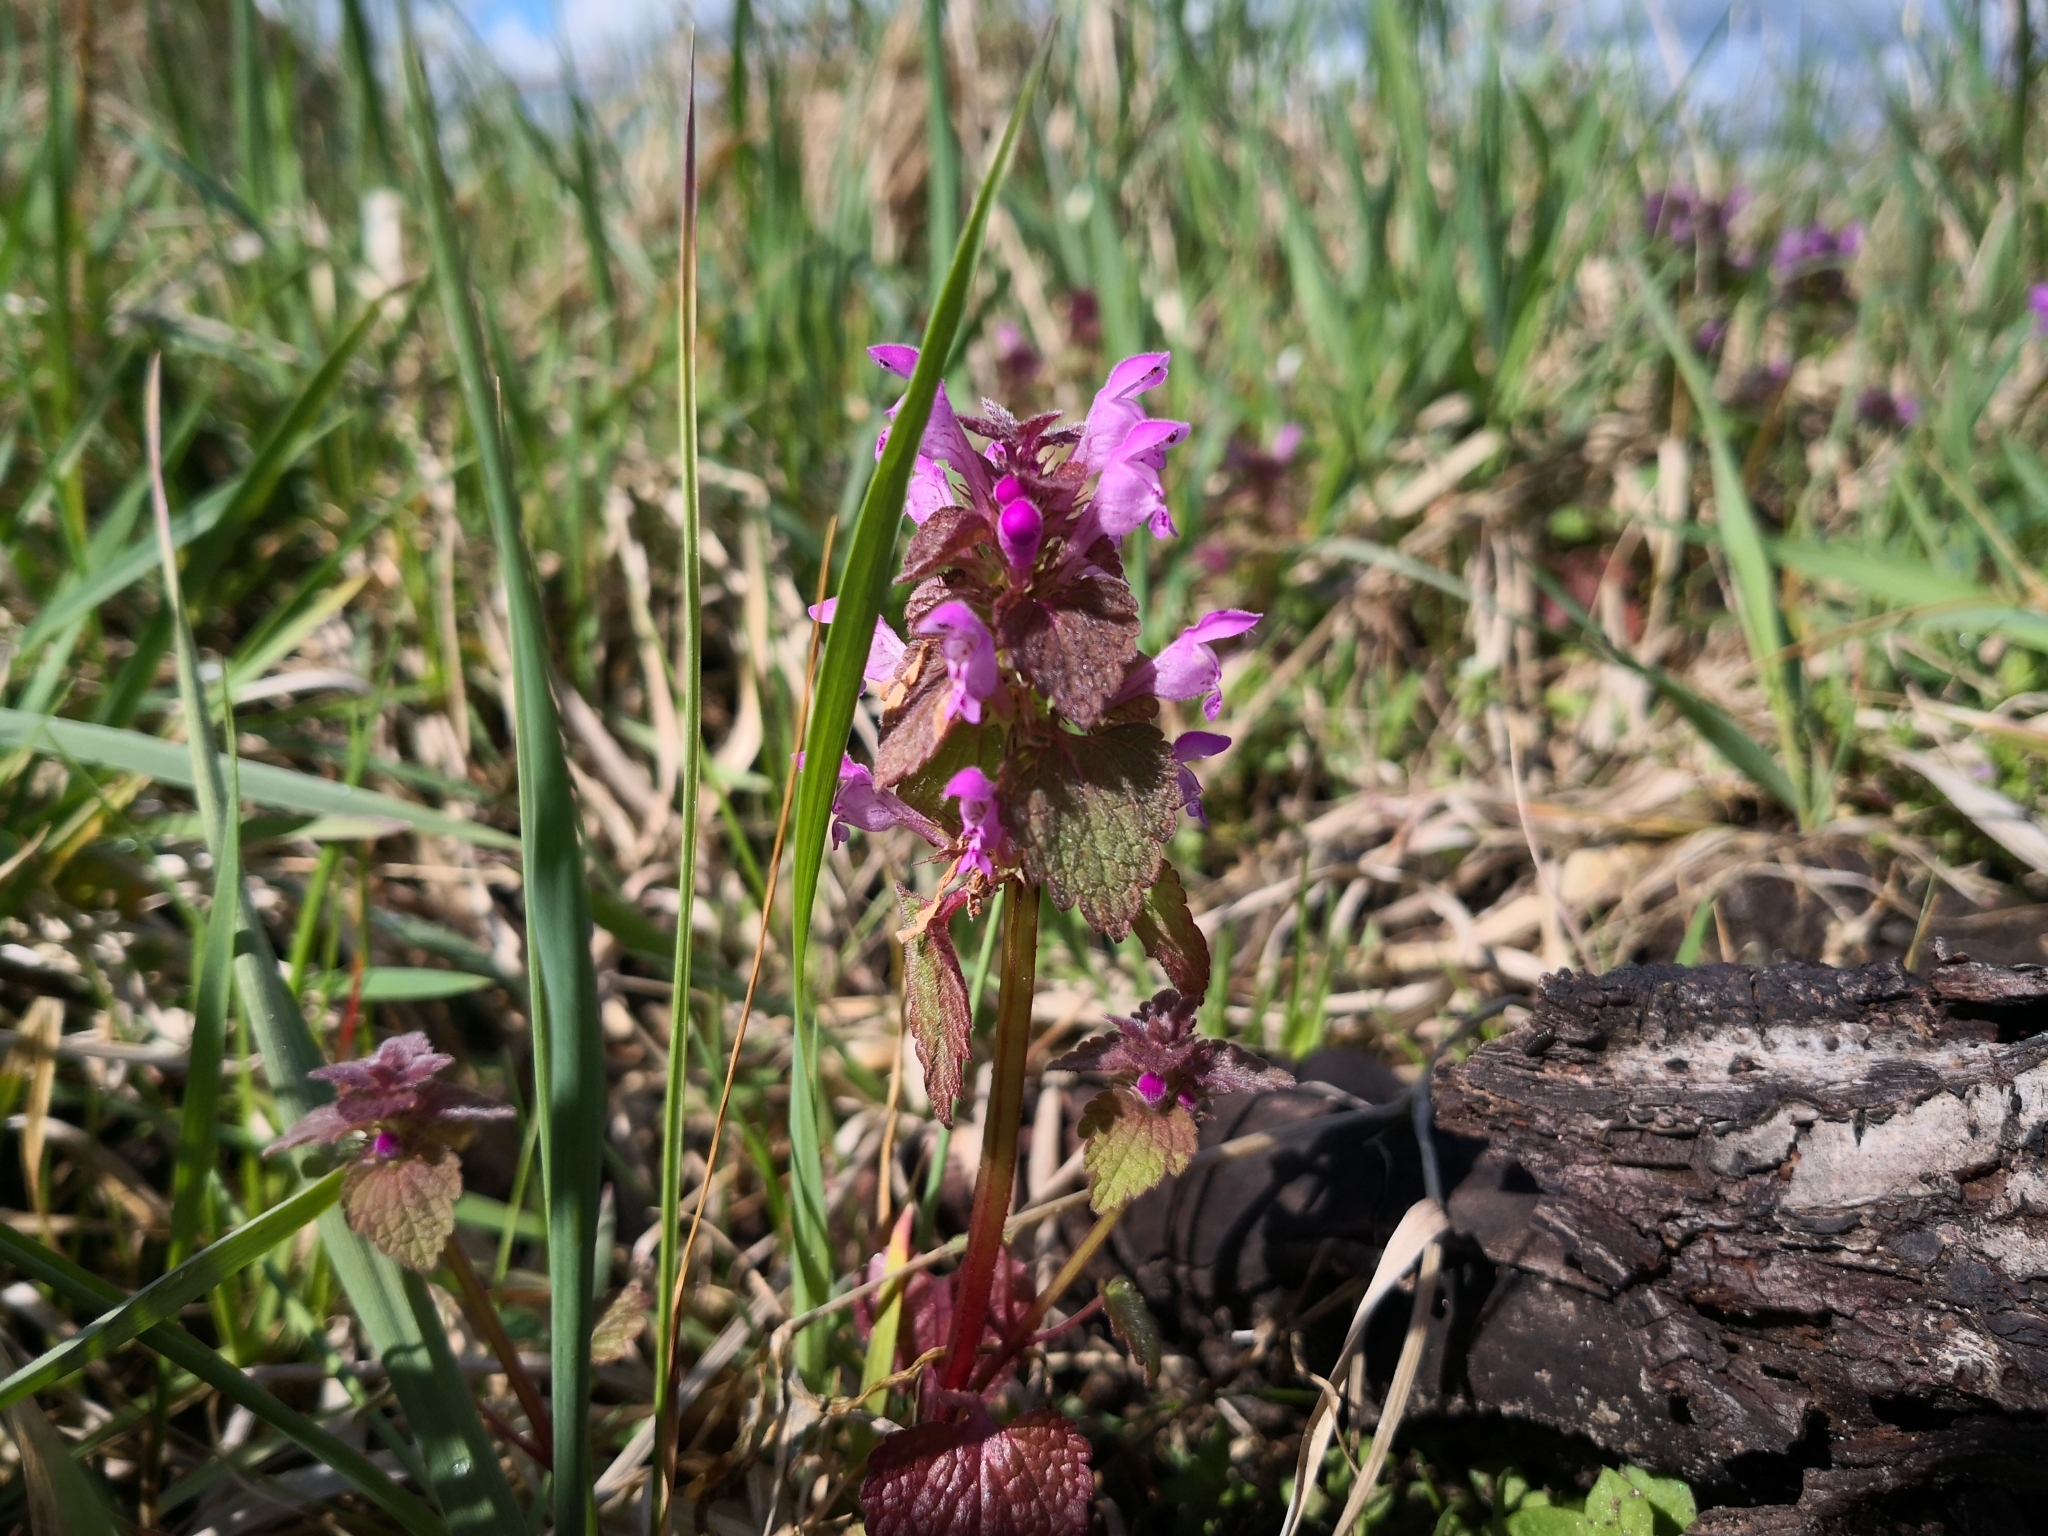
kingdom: Plantae
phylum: Tracheophyta
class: Magnoliopsida
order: Lamiales
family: Lamiaceae
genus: Lamium
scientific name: Lamium purpureum
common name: Red dead-nettle
